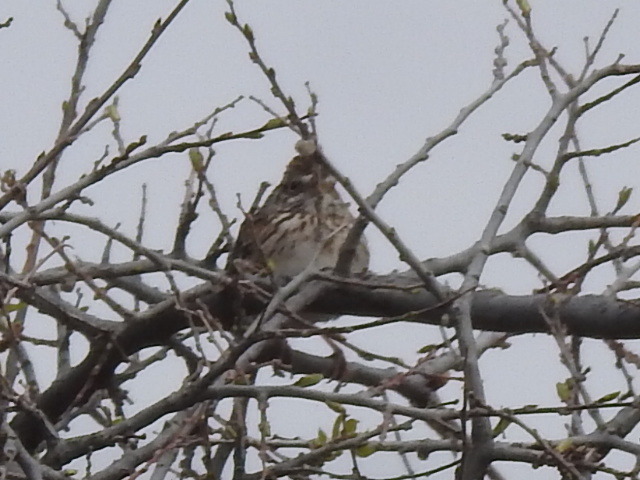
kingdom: Animalia
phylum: Chordata
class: Aves
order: Passeriformes
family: Passerellidae
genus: Pooecetes
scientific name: Pooecetes gramineus
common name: Vesper sparrow
